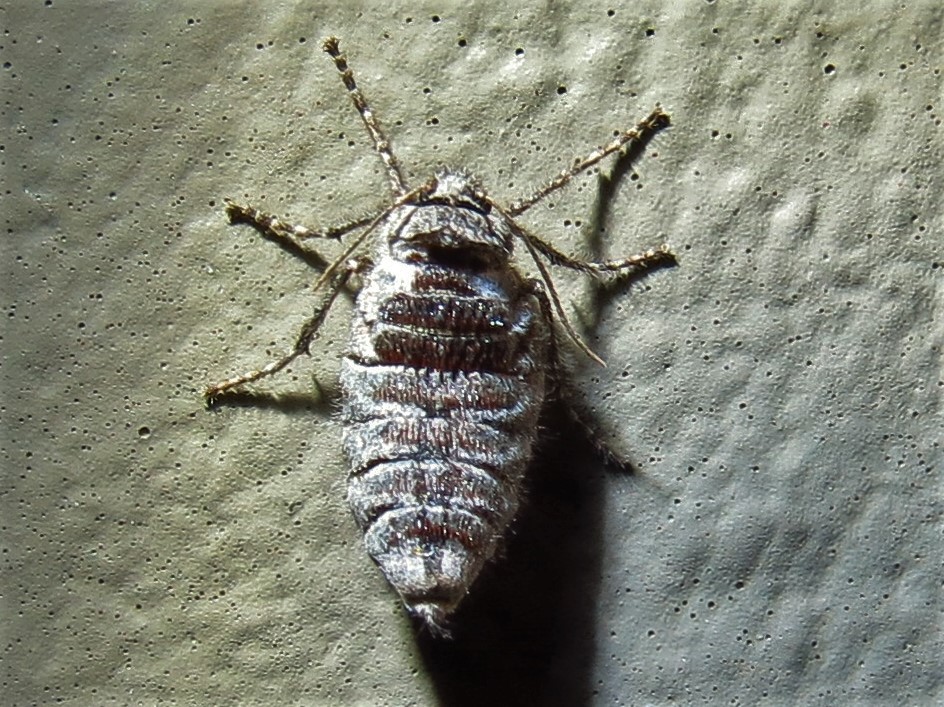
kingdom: Animalia
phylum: Arthropoda
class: Insecta
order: Lepidoptera
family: Geometridae
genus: Paleacrita
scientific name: Paleacrita vernata
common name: Spring cankerworm
